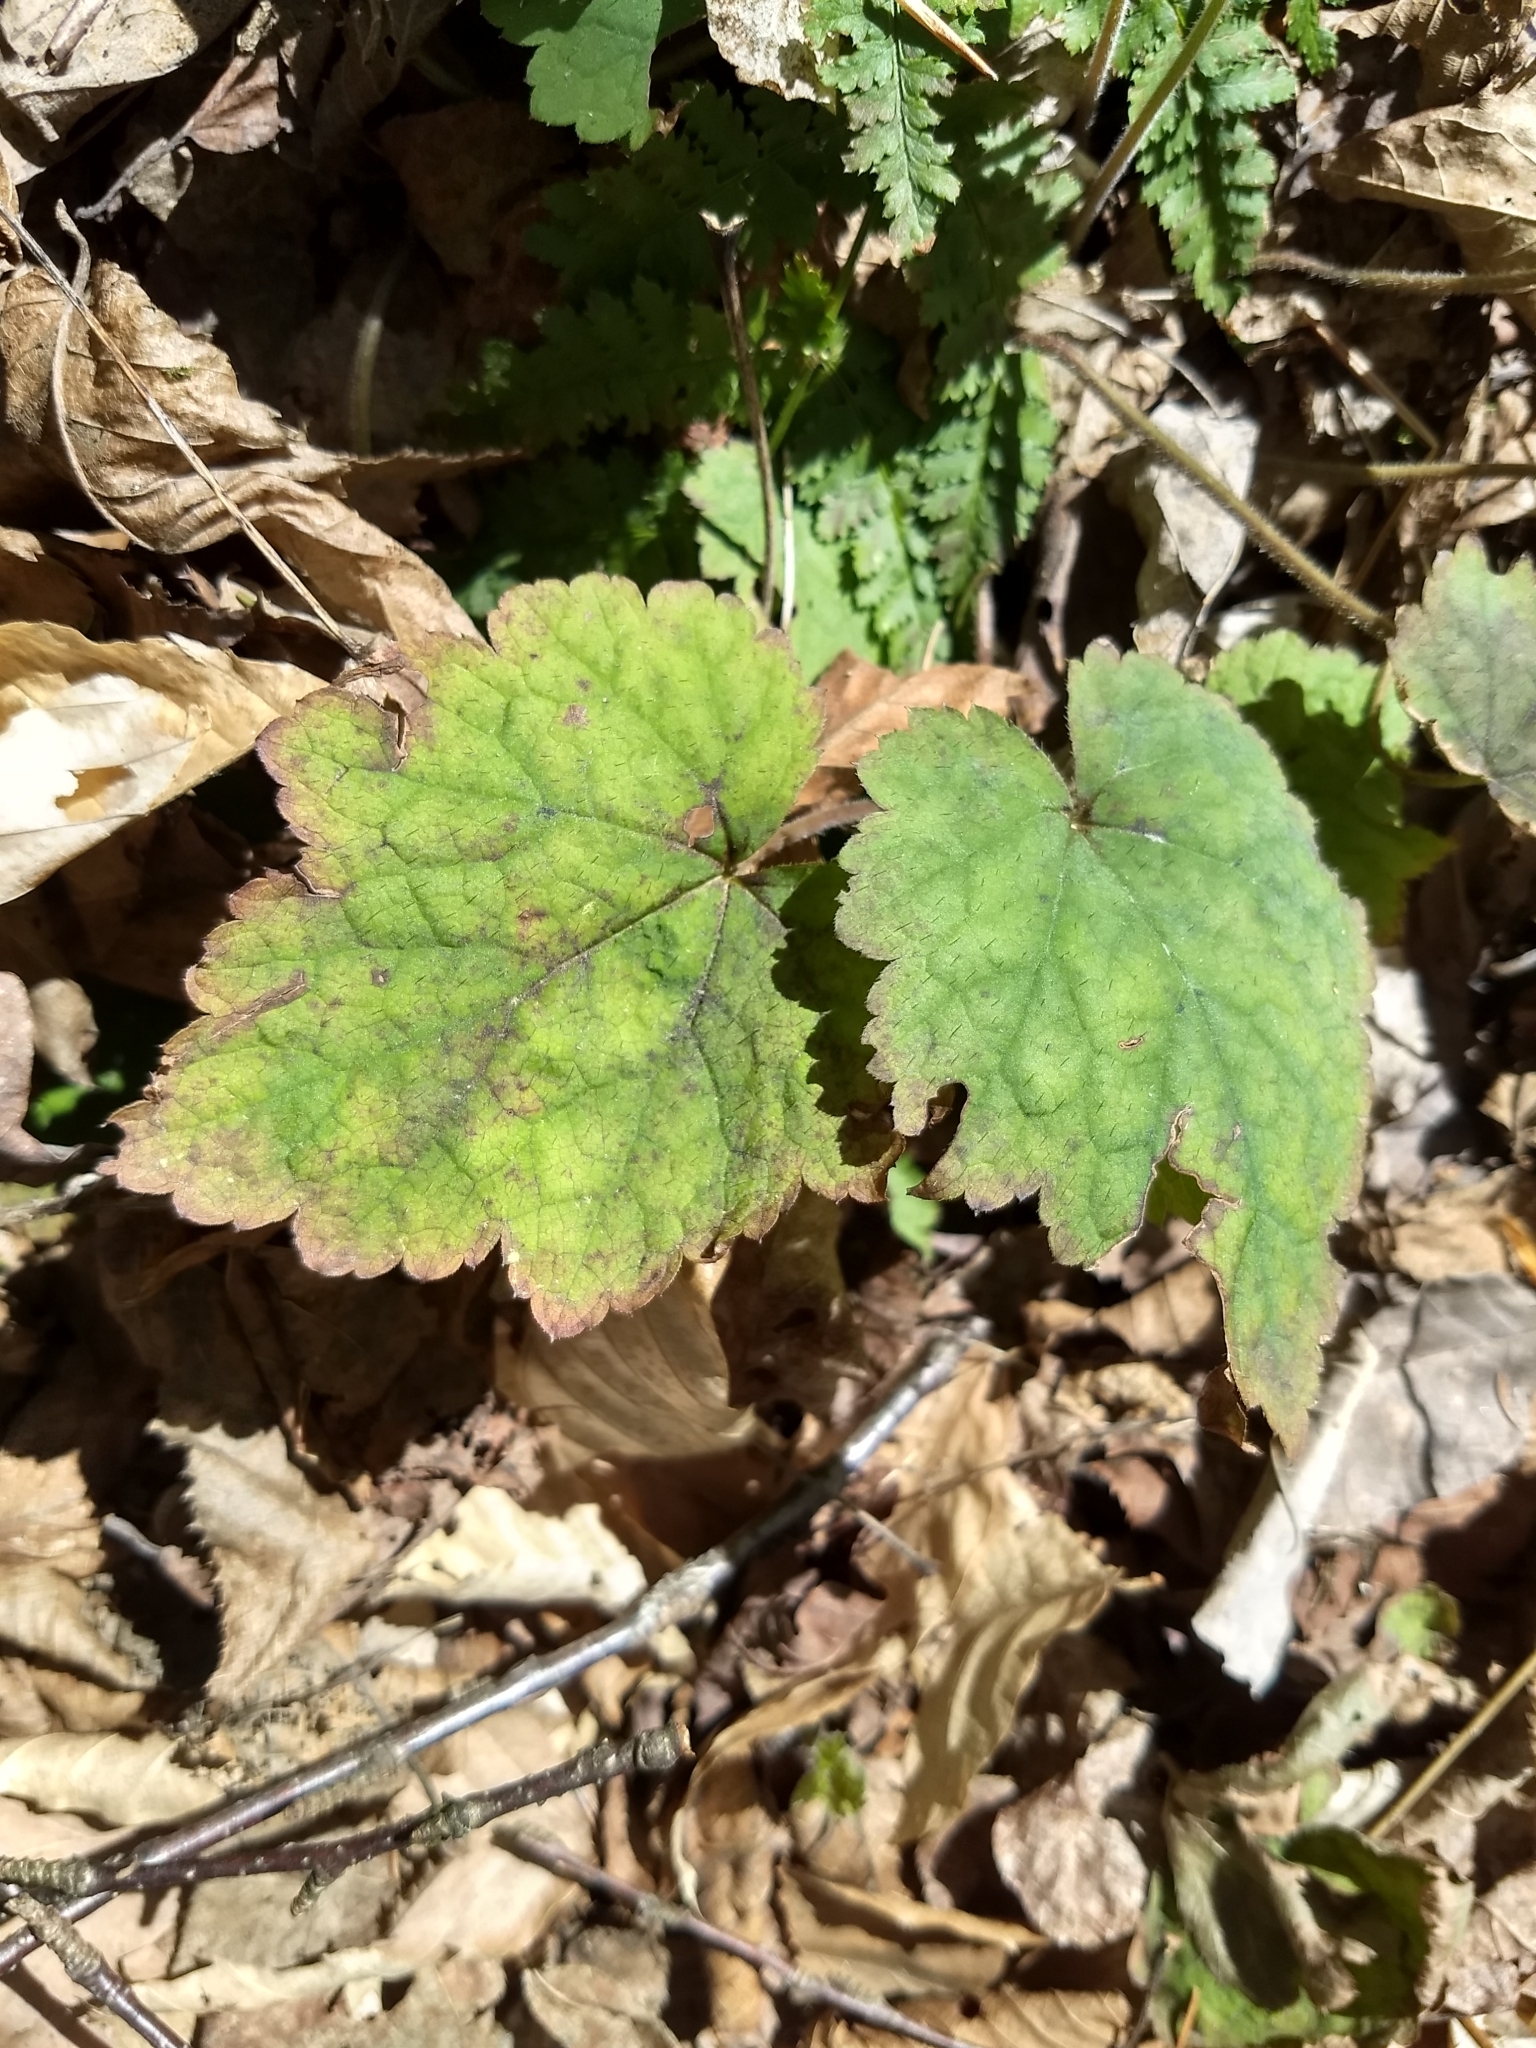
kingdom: Plantae
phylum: Tracheophyta
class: Magnoliopsida
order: Saxifragales
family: Saxifragaceae
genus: Tiarella
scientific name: Tiarella stolonifera
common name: Stoloniferous foamflower
